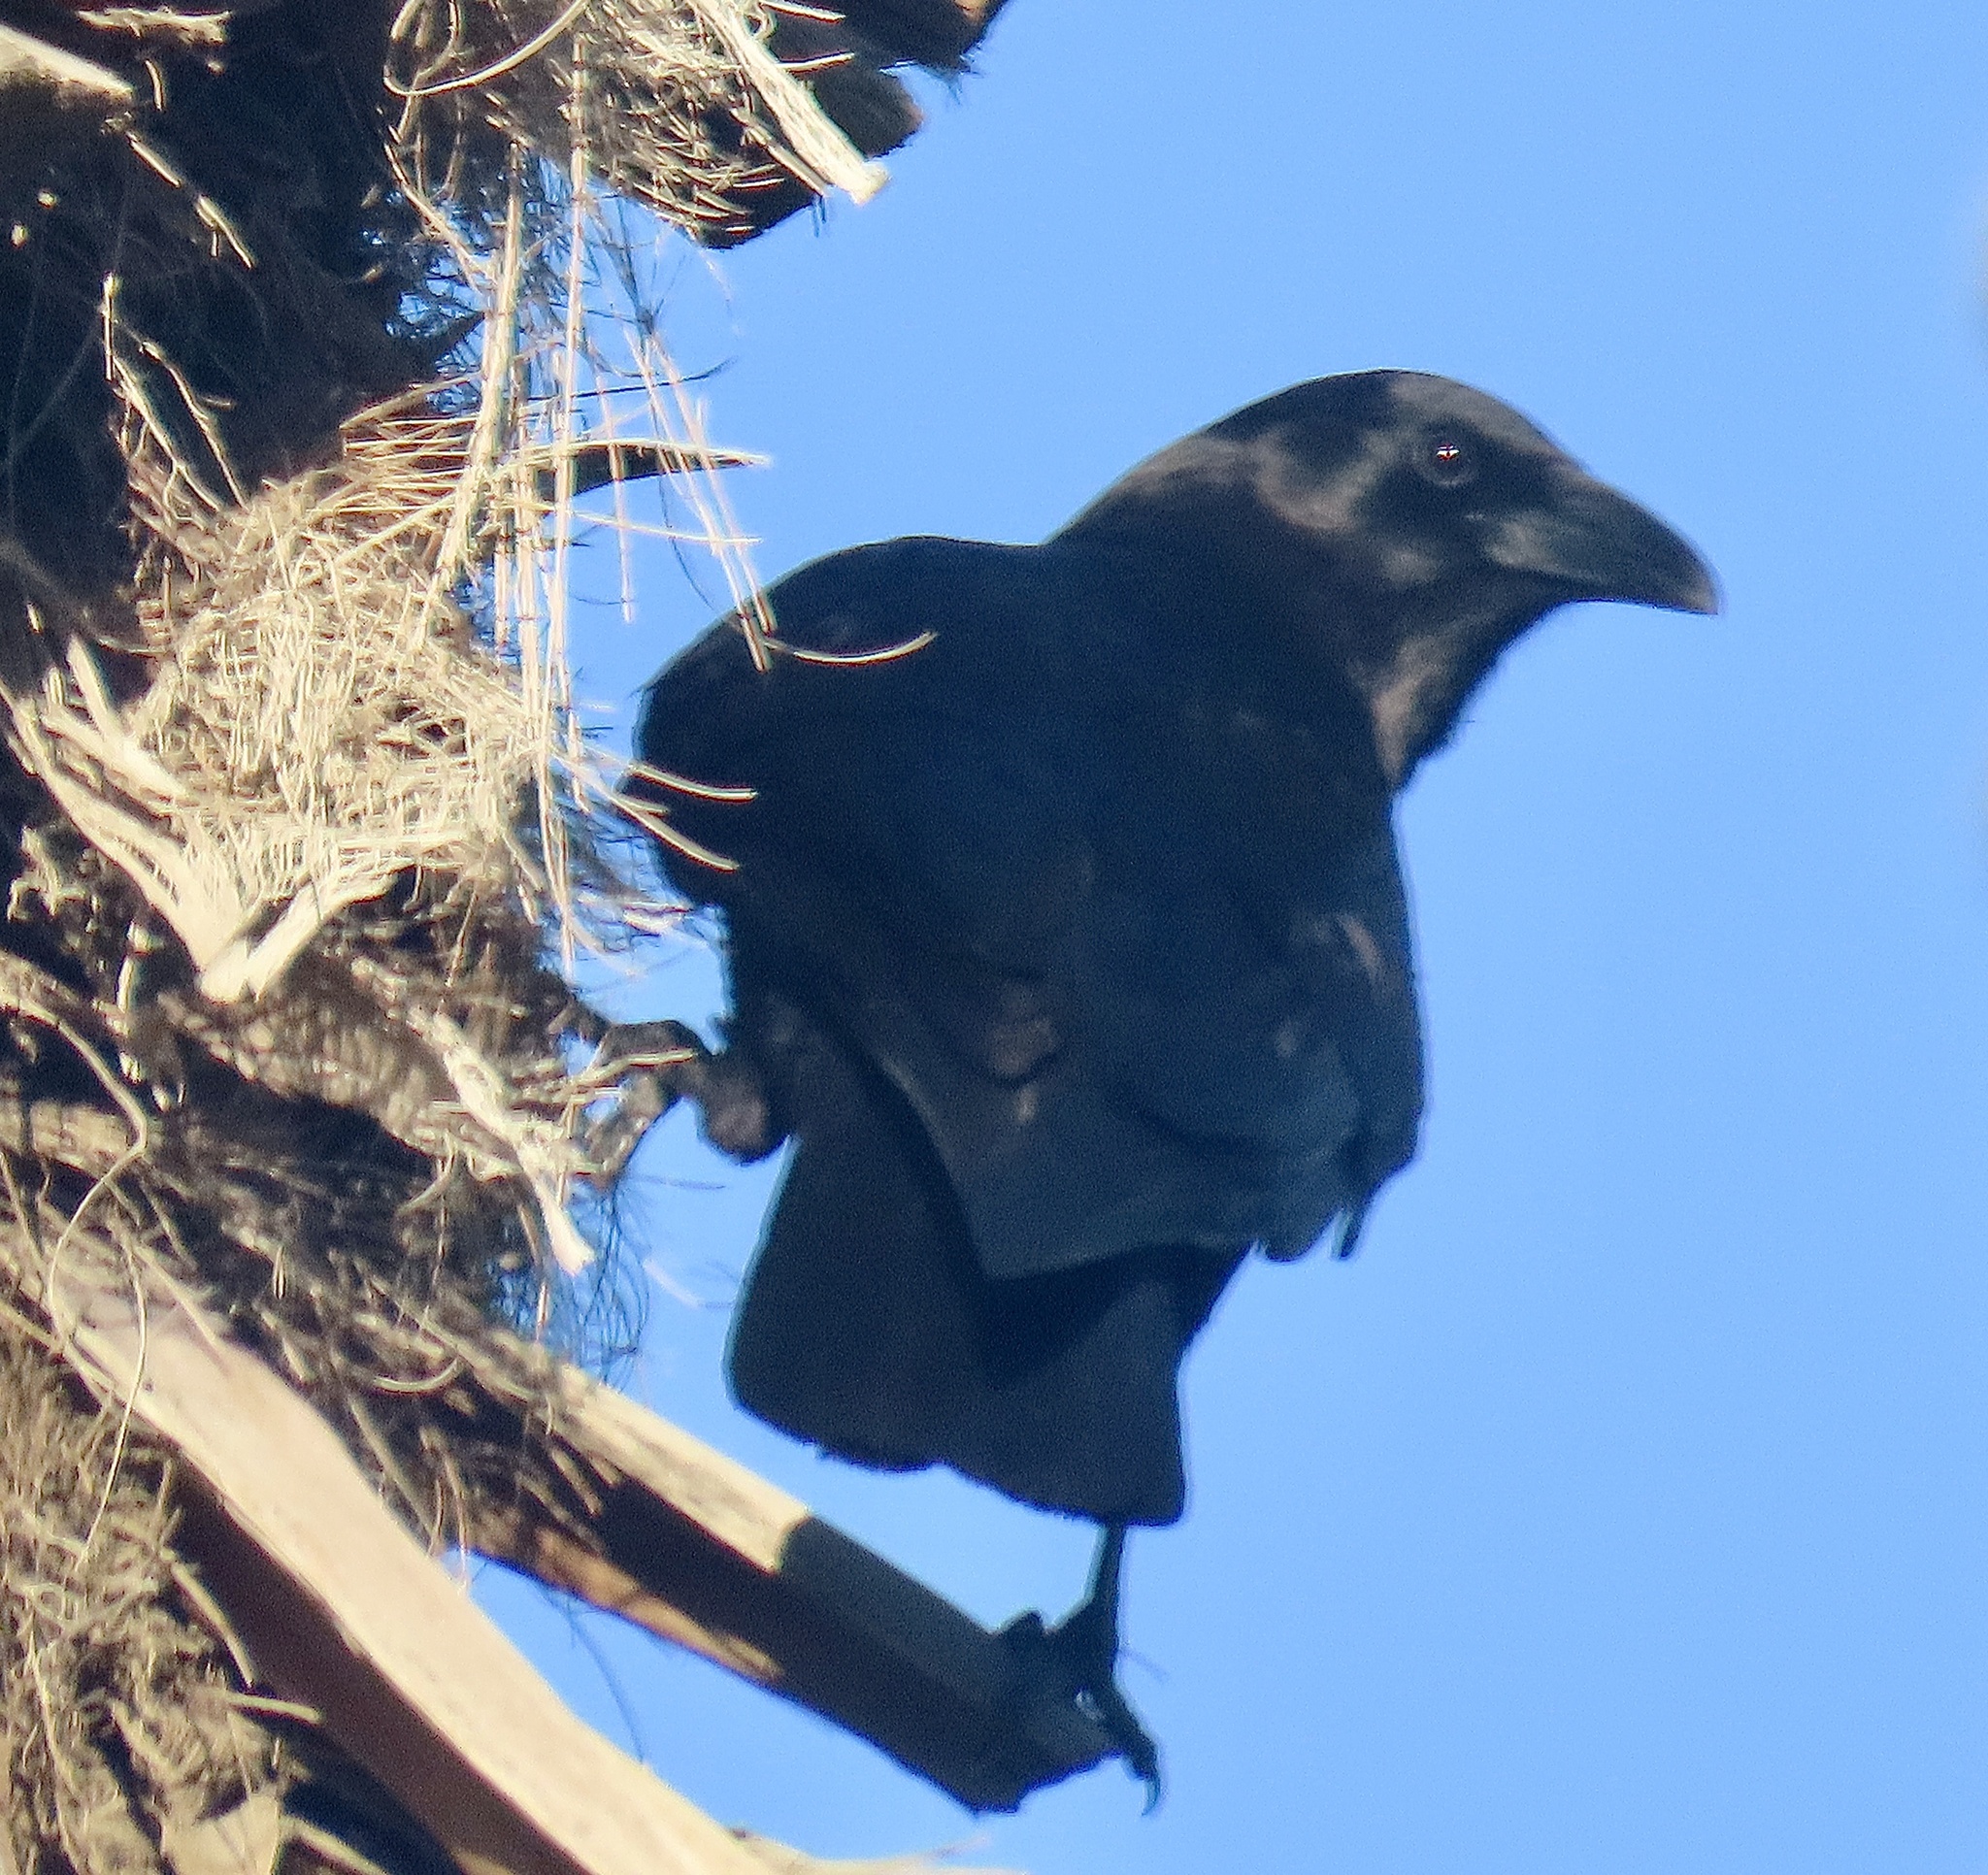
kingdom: Animalia
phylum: Chordata
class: Aves
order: Passeriformes
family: Corvidae
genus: Corvus
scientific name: Corvus brachyrhynchos
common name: American crow
